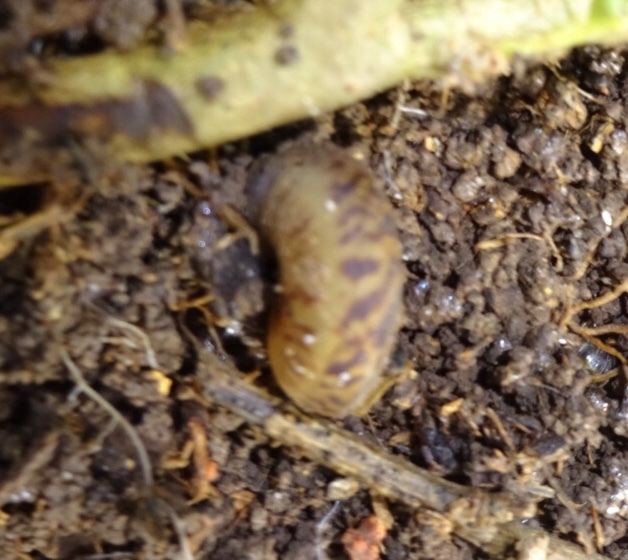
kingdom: Animalia
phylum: Mollusca
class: Gastropoda
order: Stylommatophora
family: Discidae
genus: Anguispira
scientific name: Anguispira alternata
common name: Flamed tigersnail
